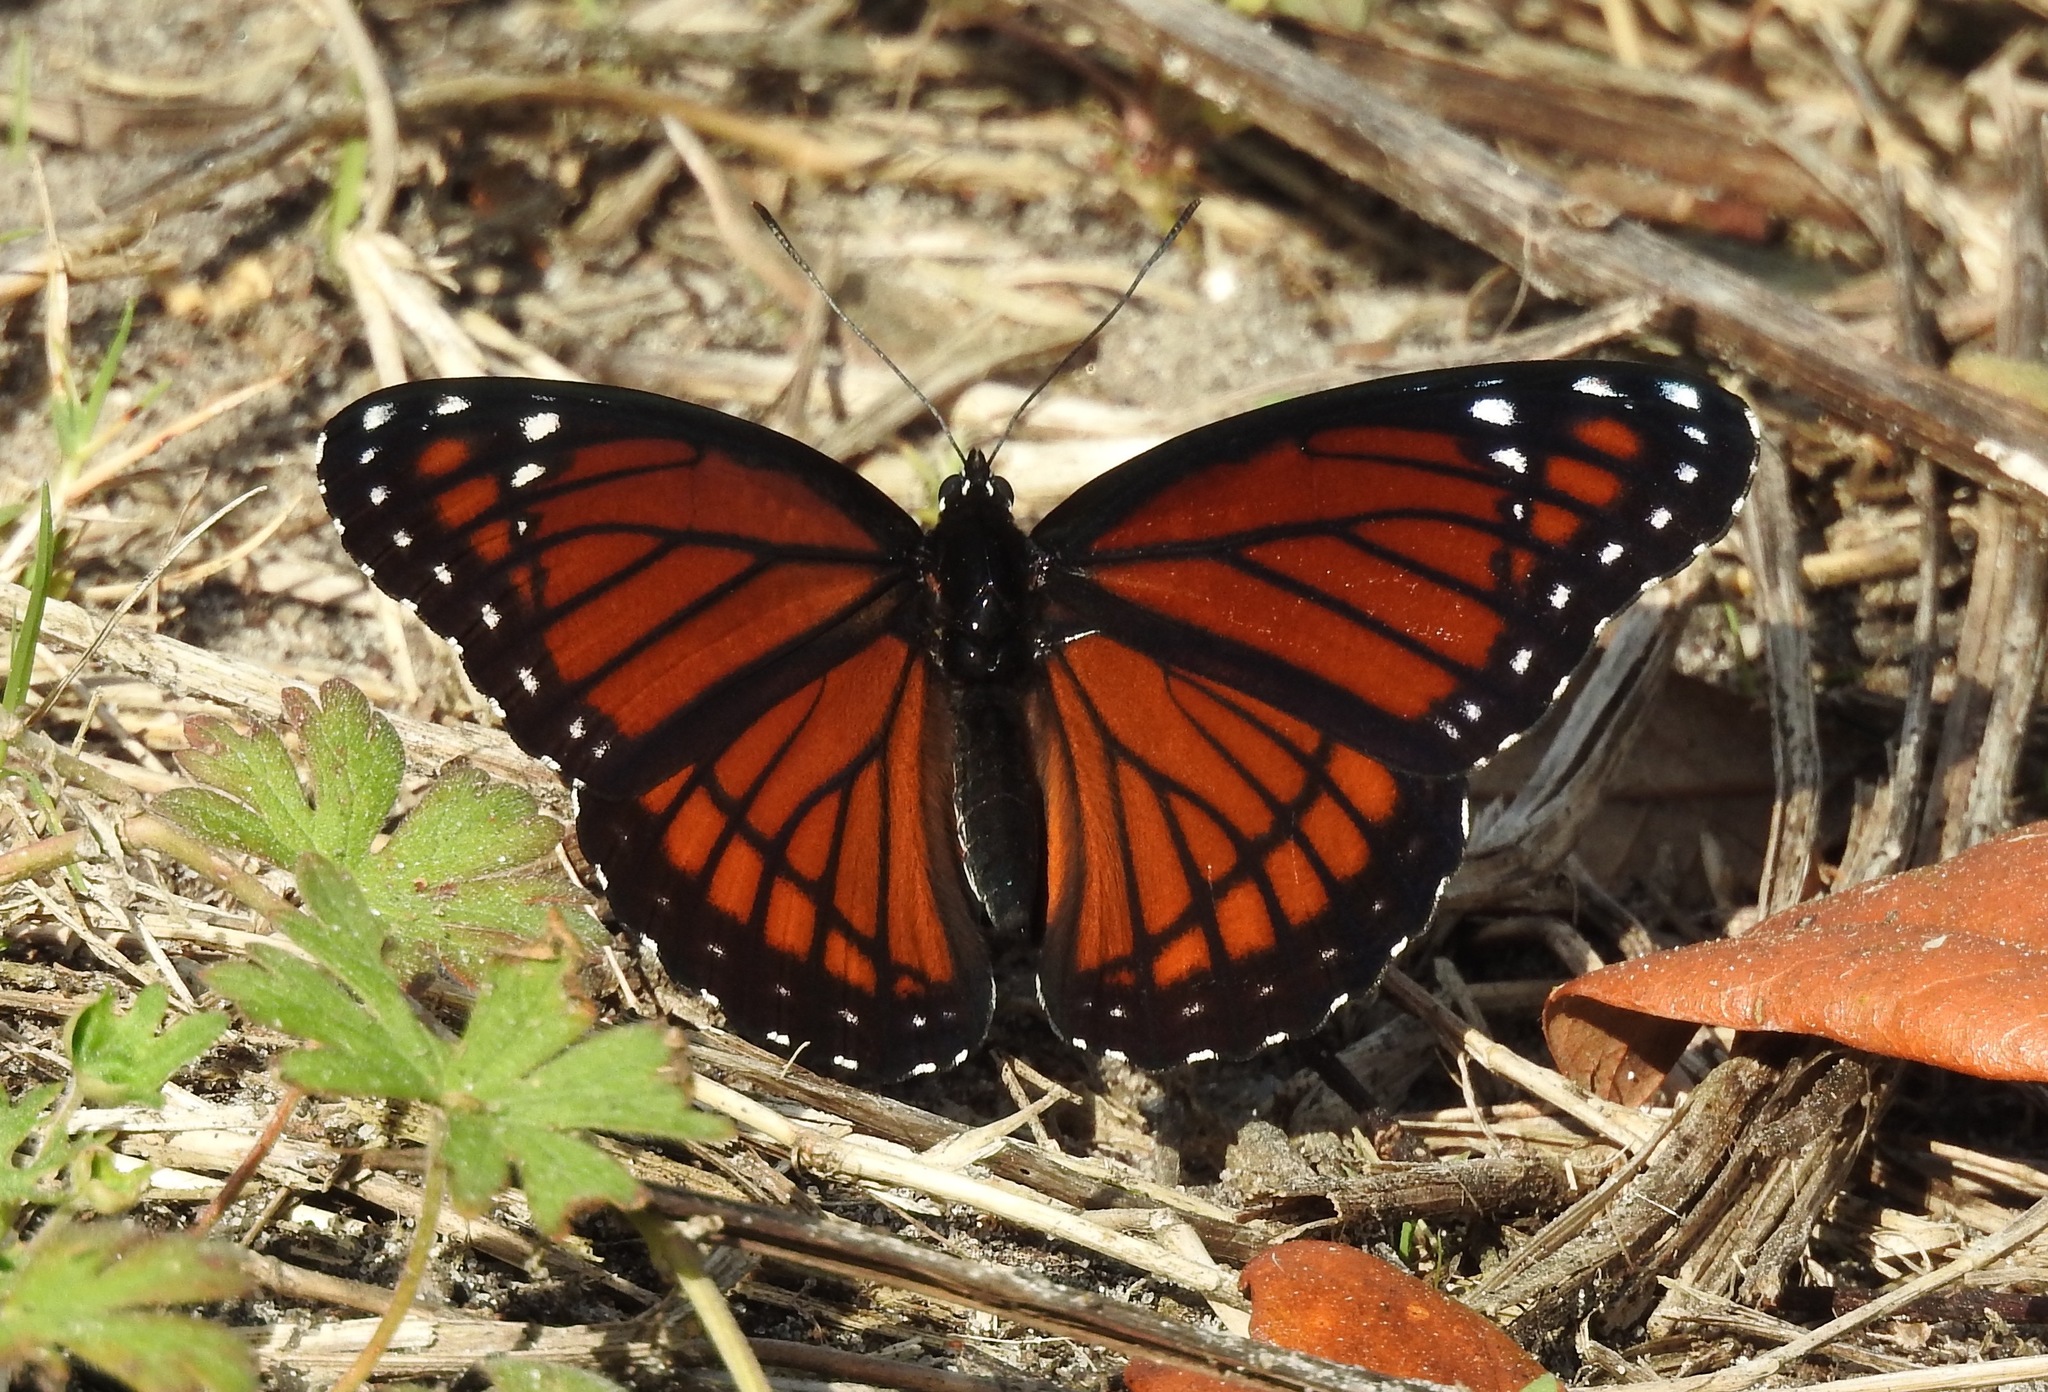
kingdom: Animalia
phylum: Arthropoda
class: Insecta
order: Lepidoptera
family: Nymphalidae
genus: Limenitis
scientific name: Limenitis archippus
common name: Viceroy
